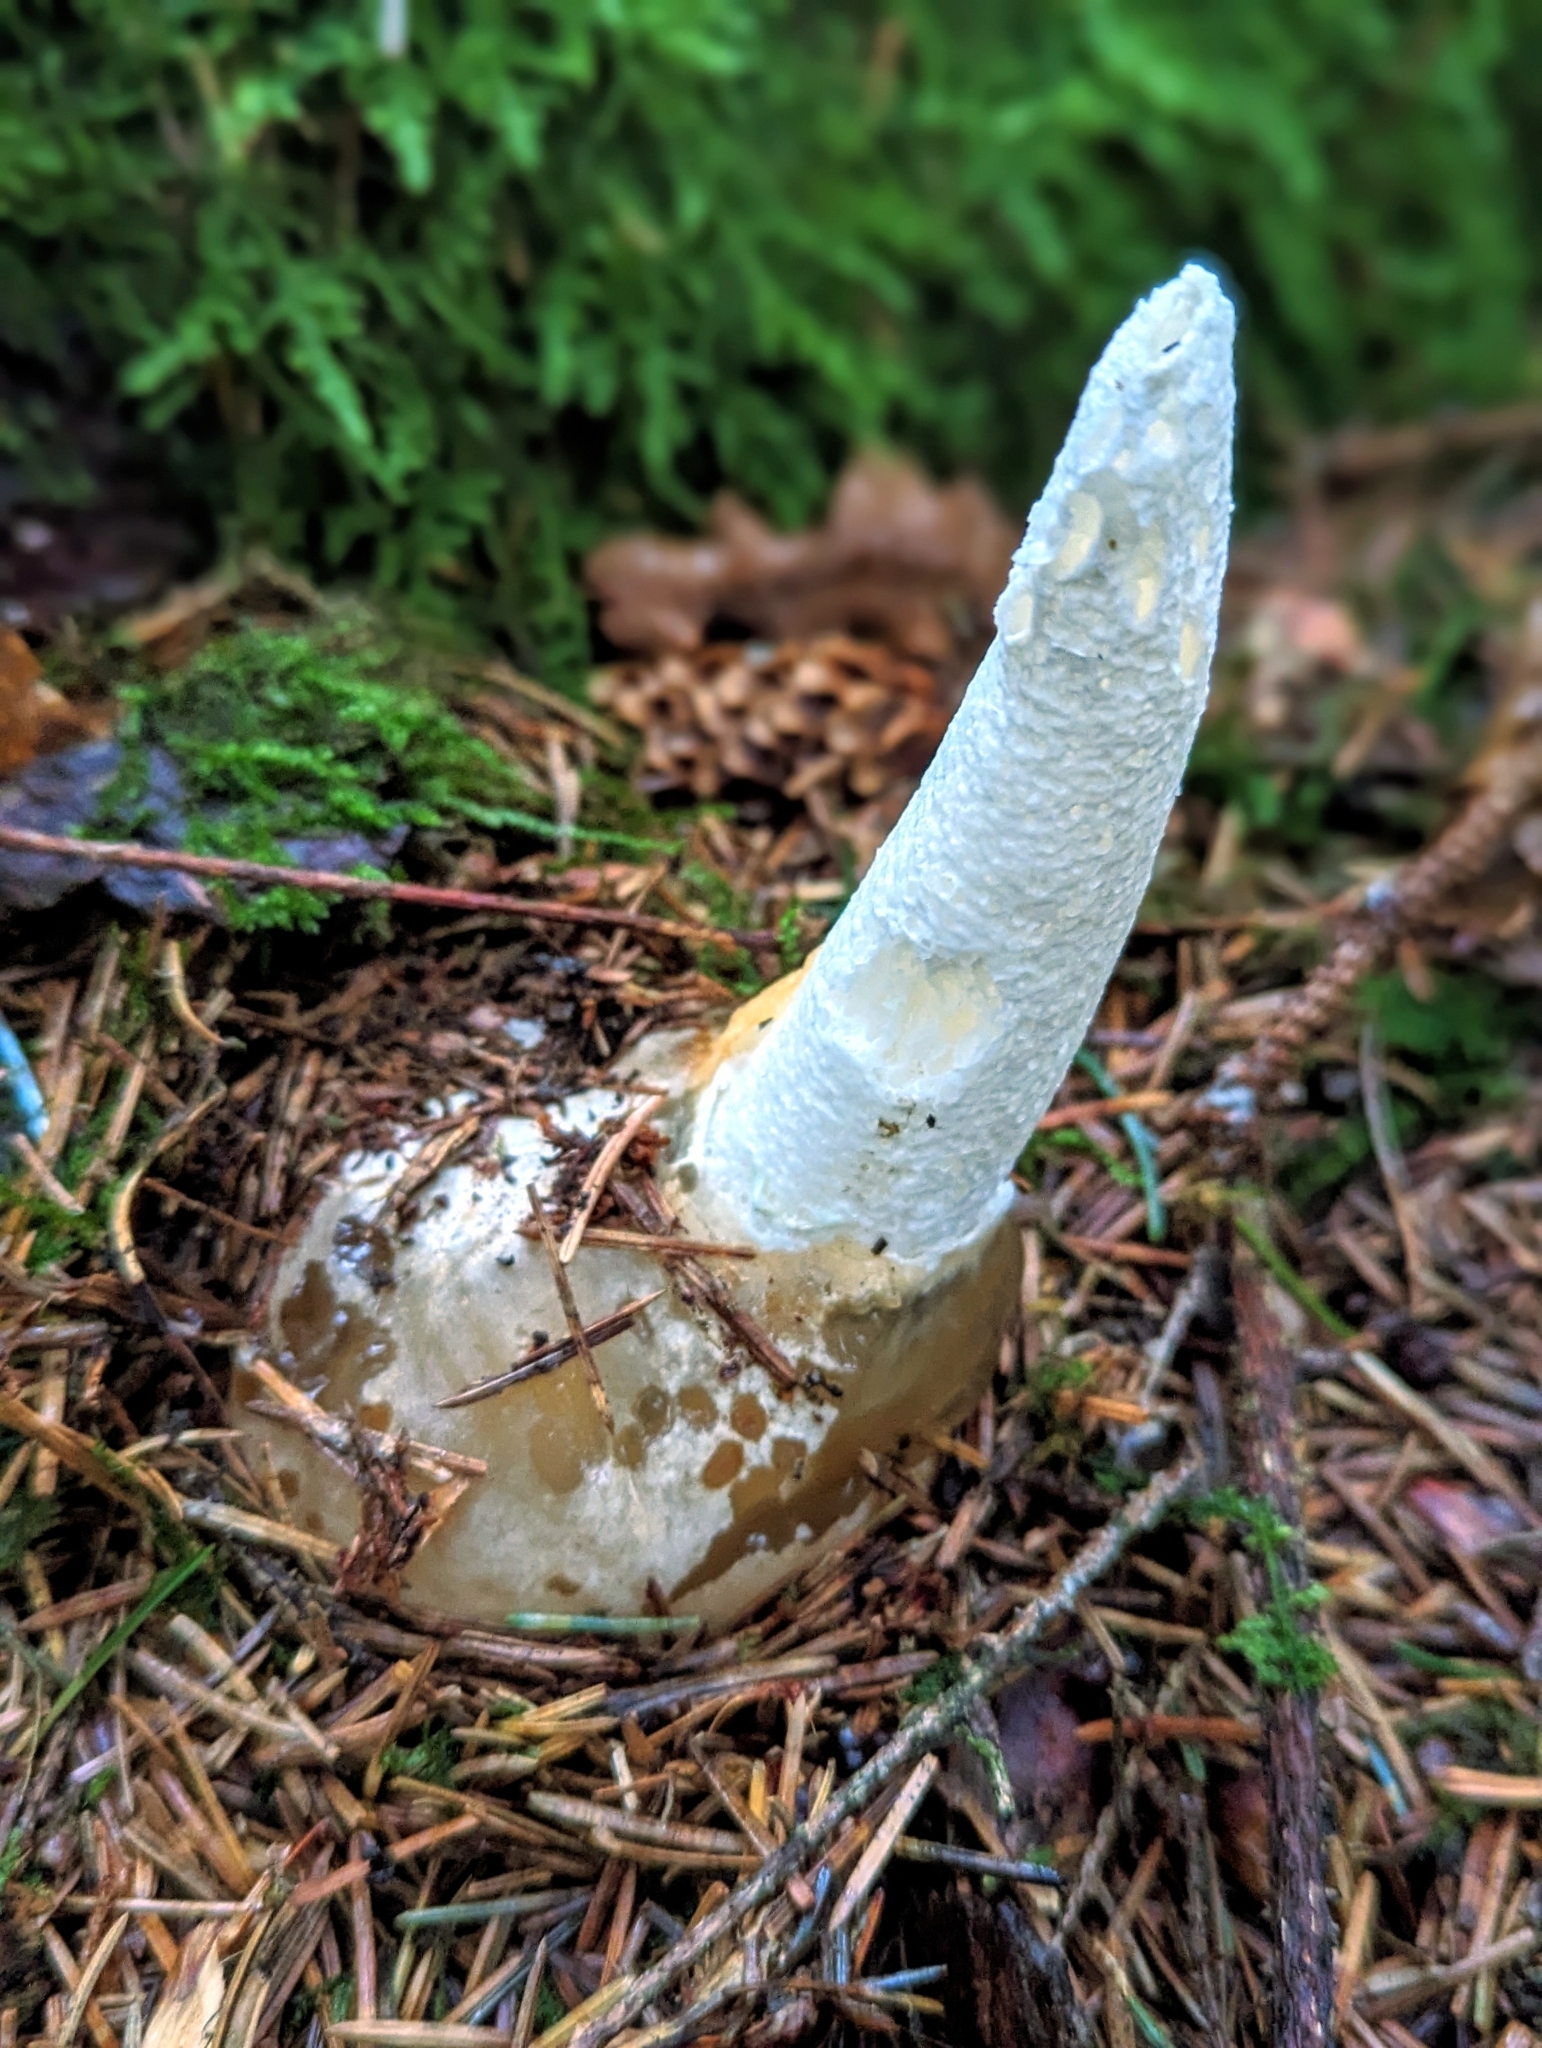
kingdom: Fungi
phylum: Basidiomycota
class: Agaricomycetes
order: Phallales
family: Phallaceae
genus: Phallus
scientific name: Phallus impudicus
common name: Common stinkhorn
